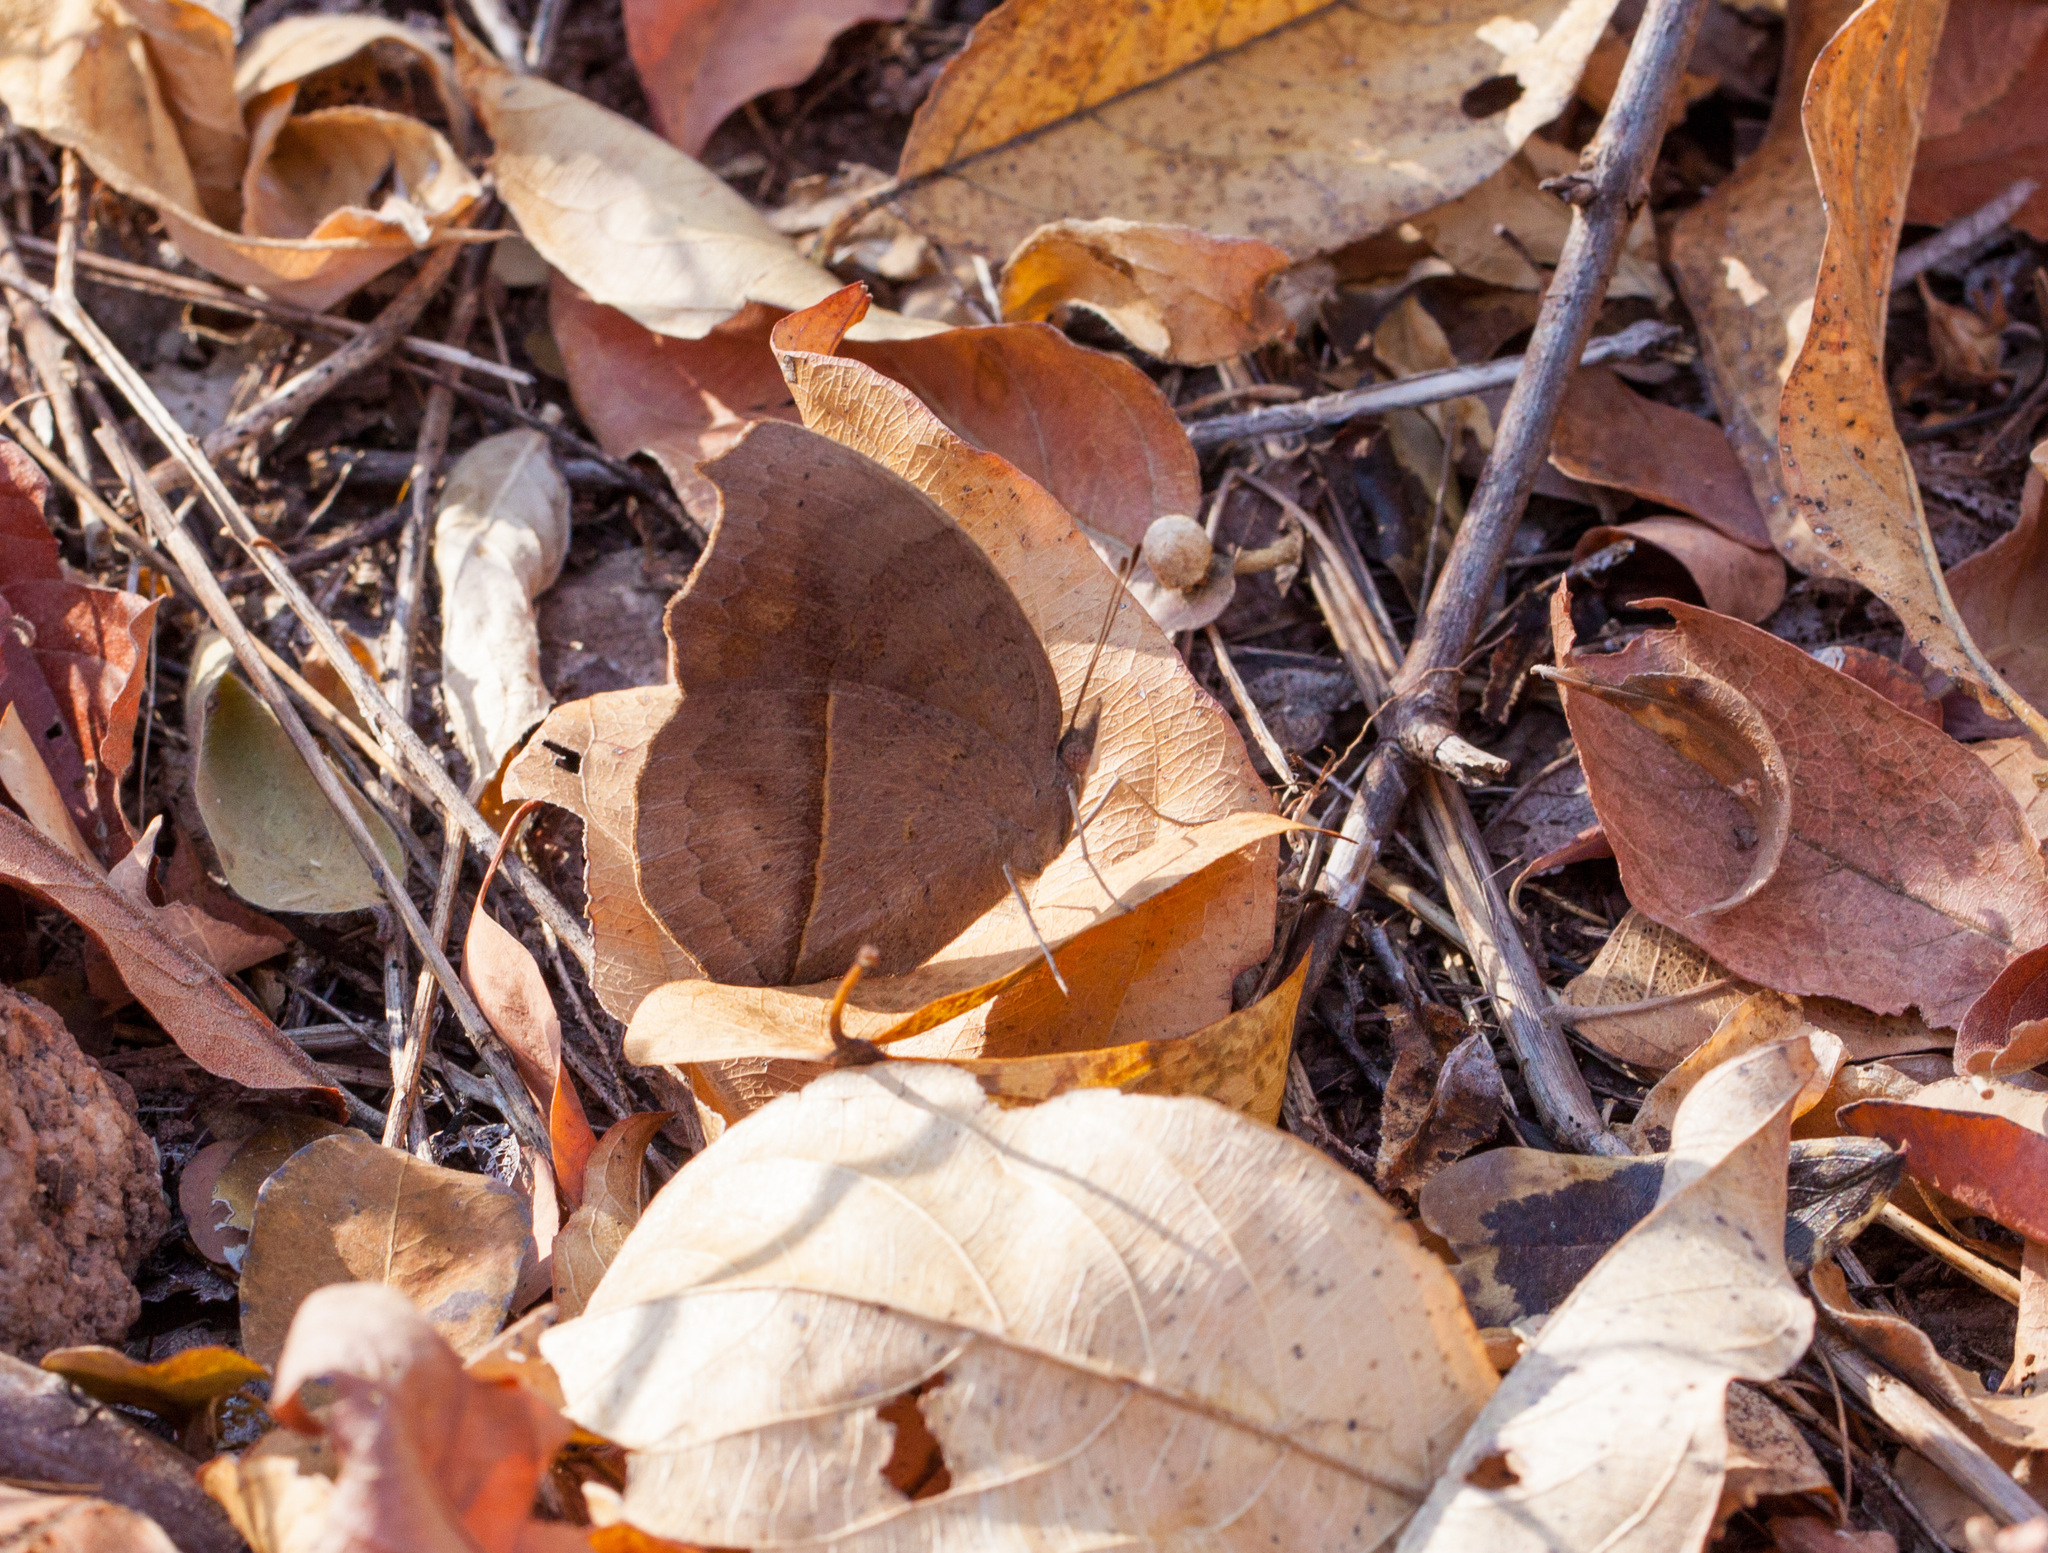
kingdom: Animalia
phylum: Arthropoda
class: Insecta
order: Lepidoptera
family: Nymphalidae
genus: Junonia
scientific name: Junonia artaxia
